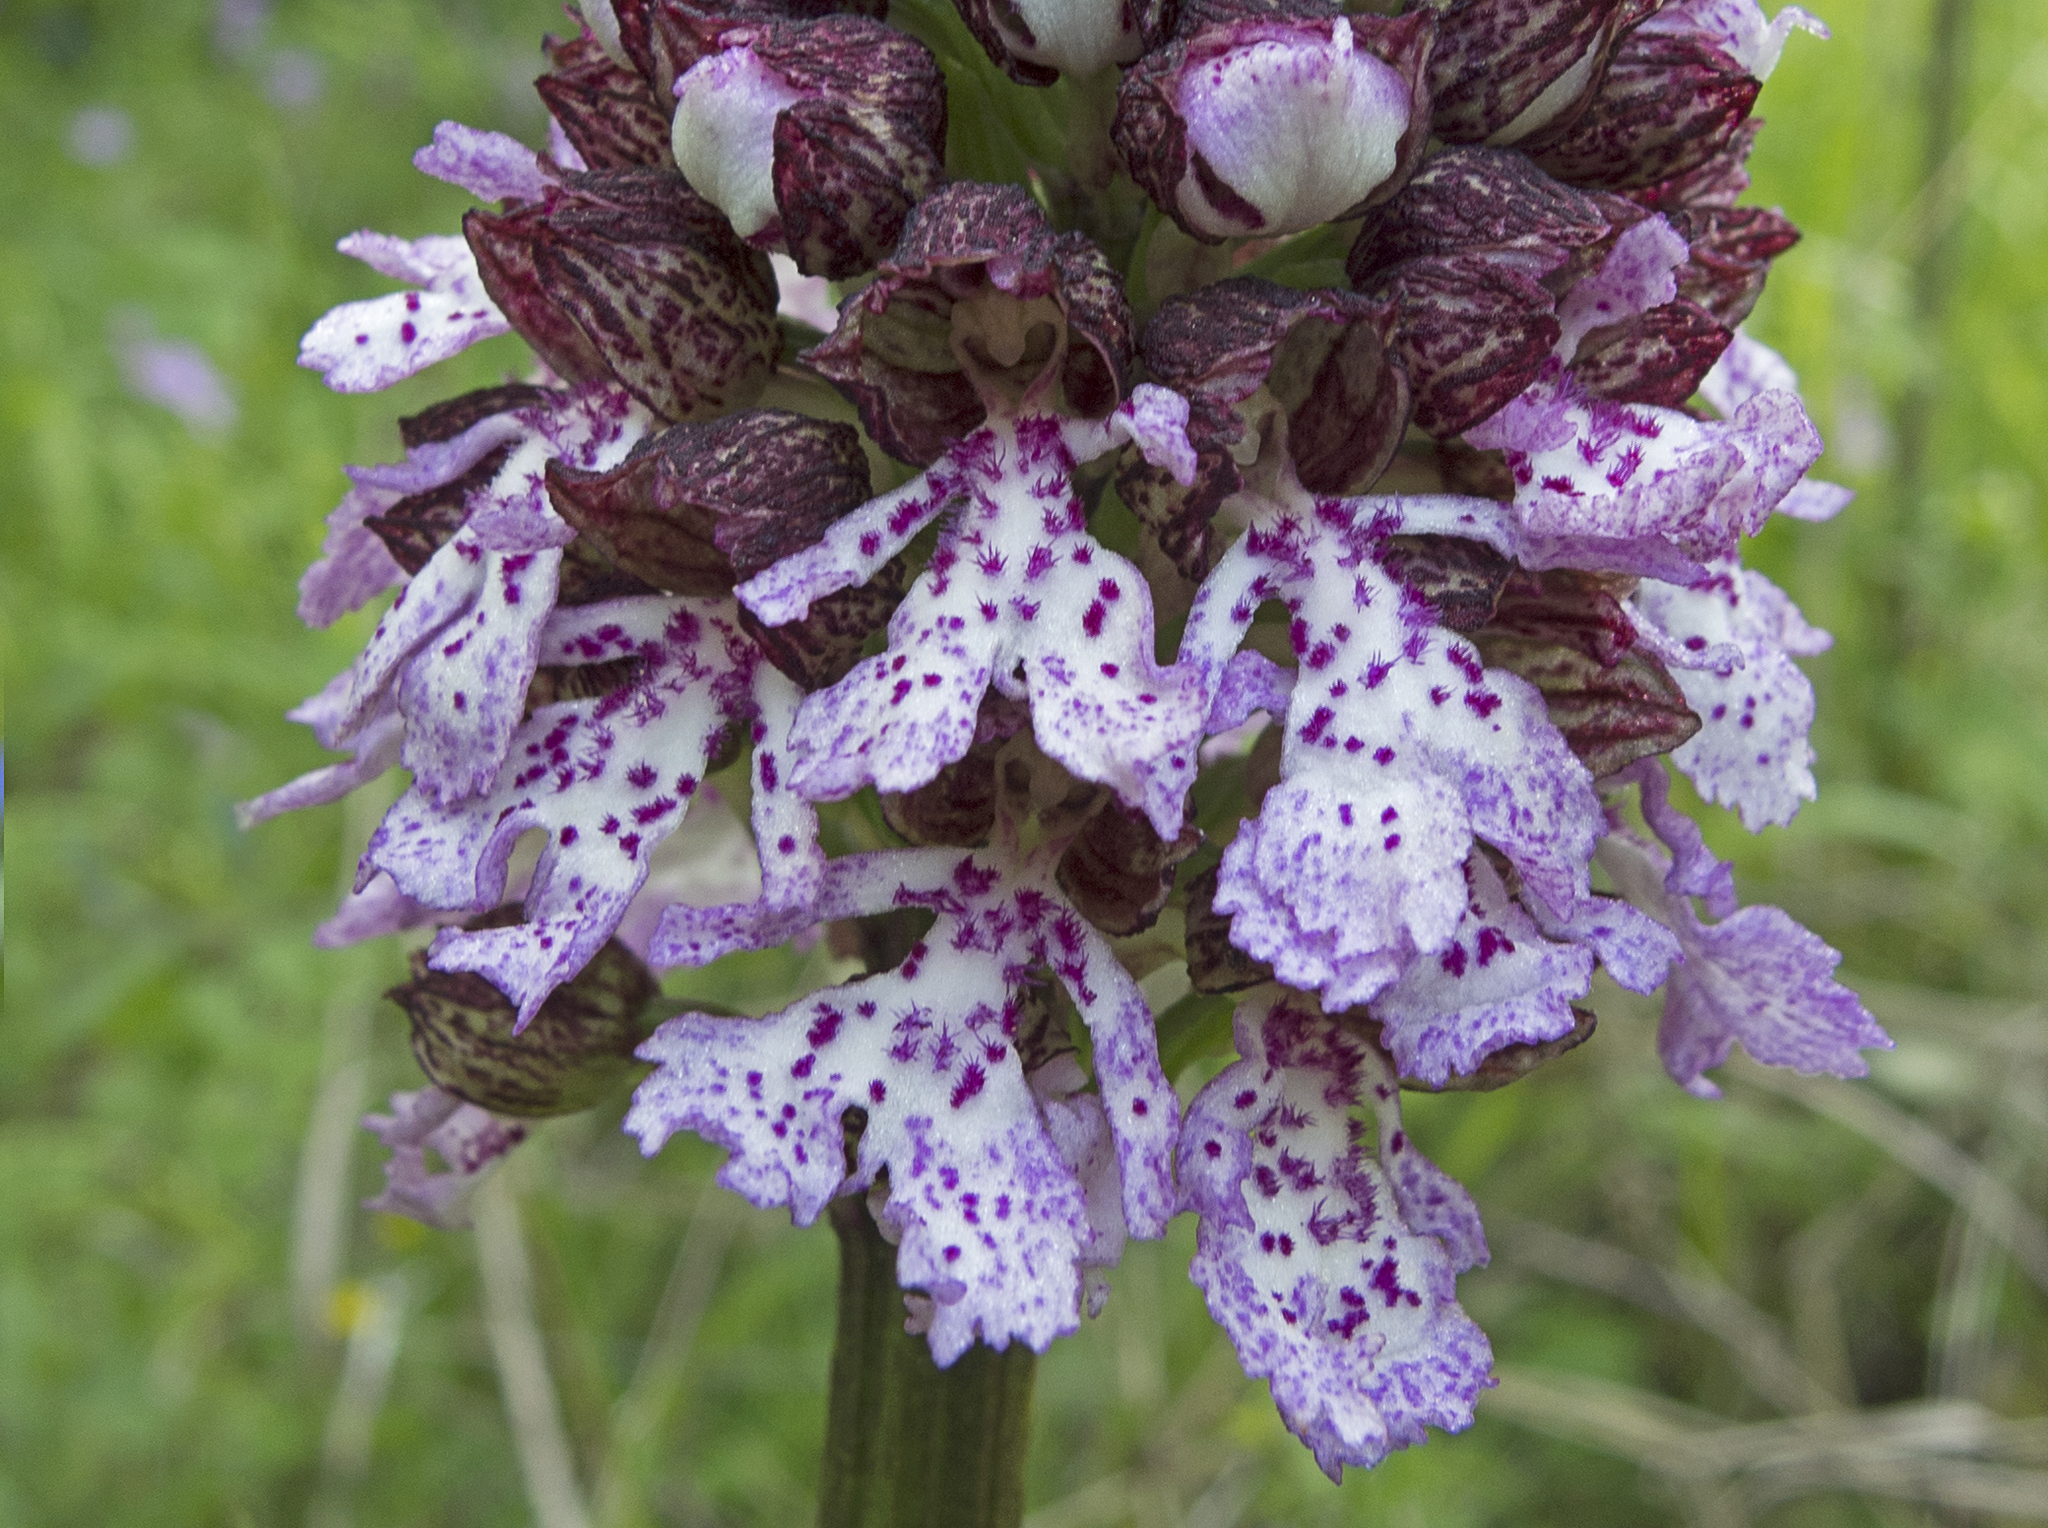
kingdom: Plantae
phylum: Tracheophyta
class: Liliopsida
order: Asparagales
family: Orchidaceae
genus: Orchis
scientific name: Orchis purpurea
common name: Lady orchid
